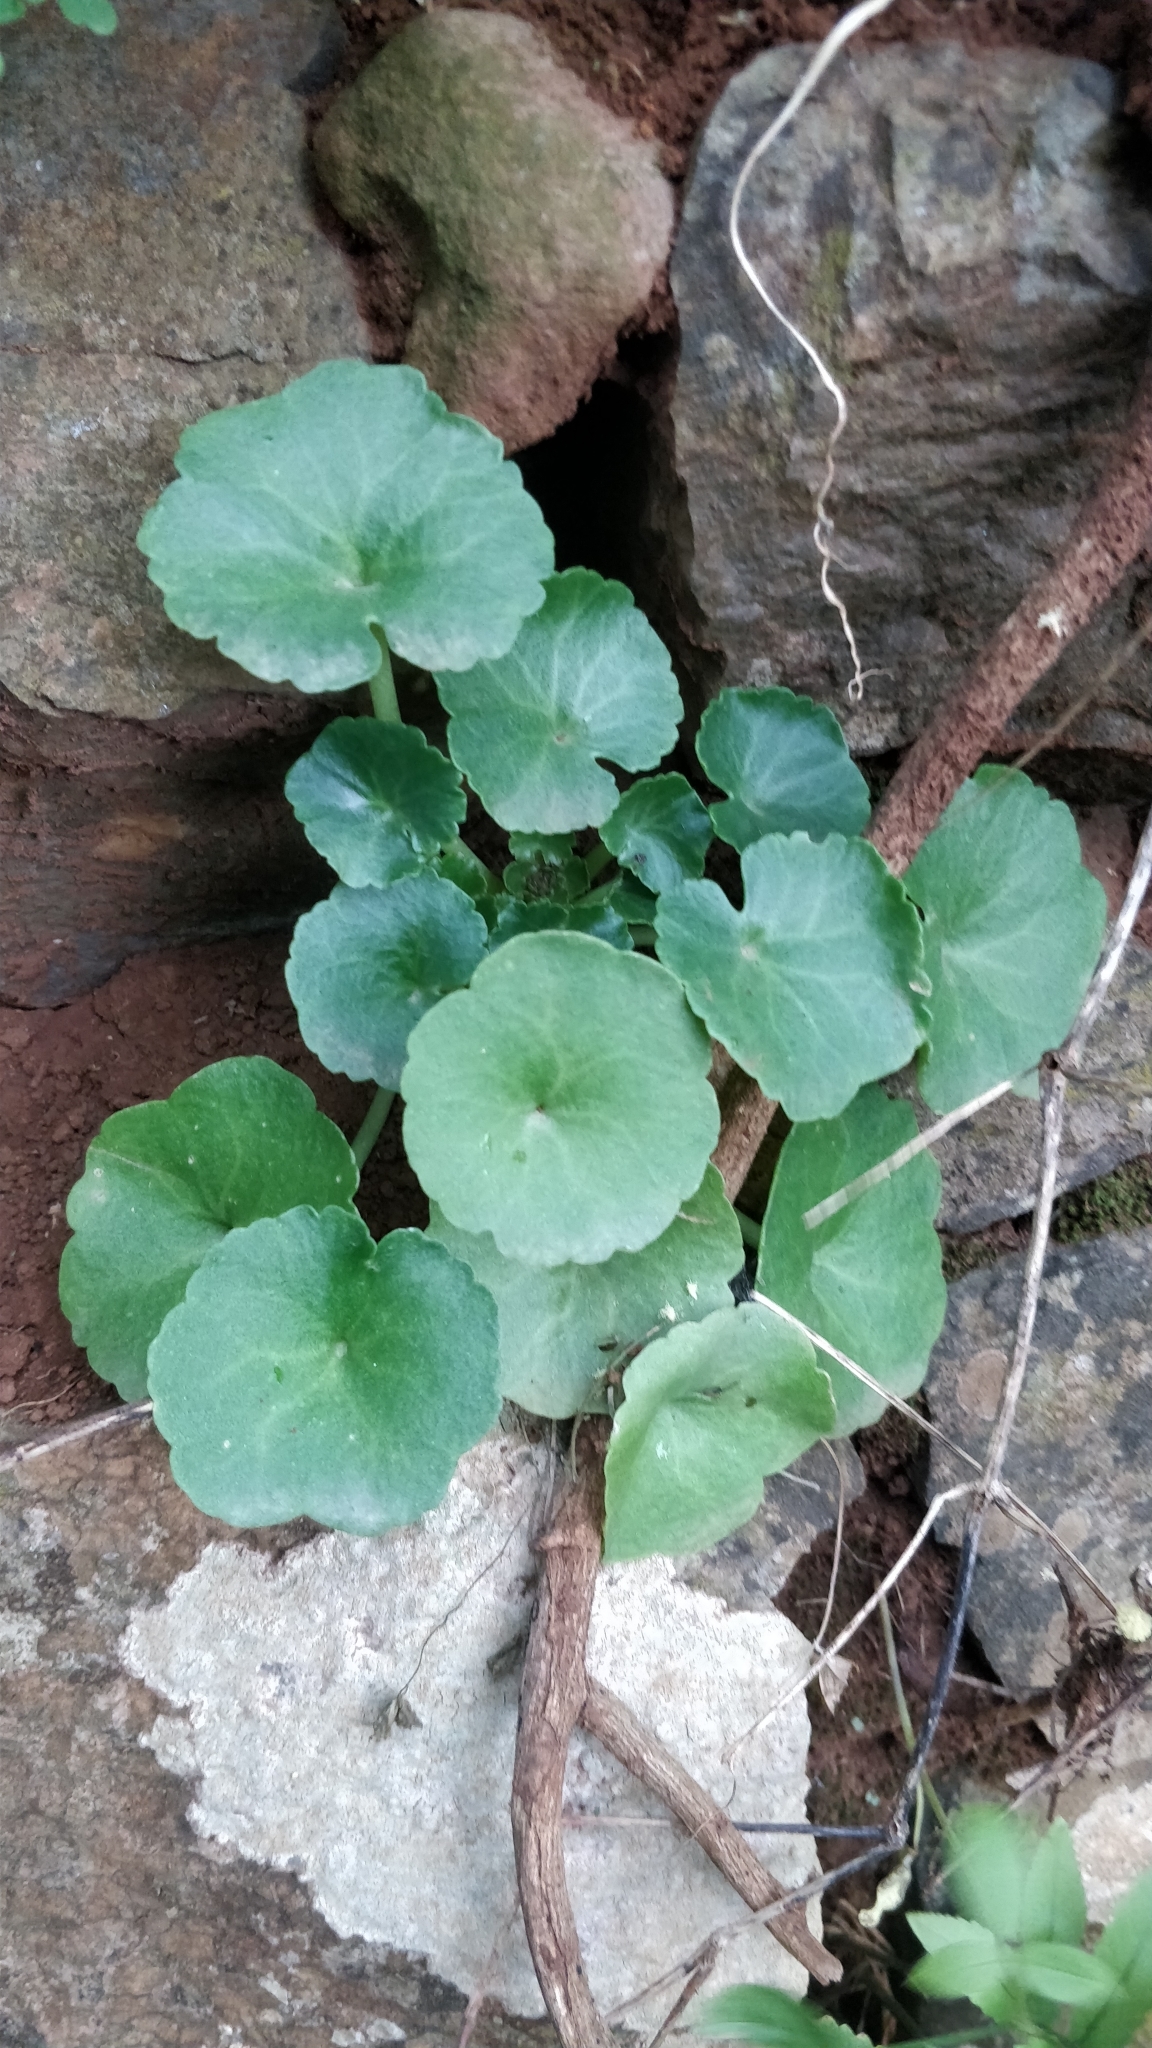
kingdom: Plantae
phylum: Tracheophyta
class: Magnoliopsida
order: Saxifragales
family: Crassulaceae
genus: Umbilicus
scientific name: Umbilicus rupestris
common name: Navelwort
